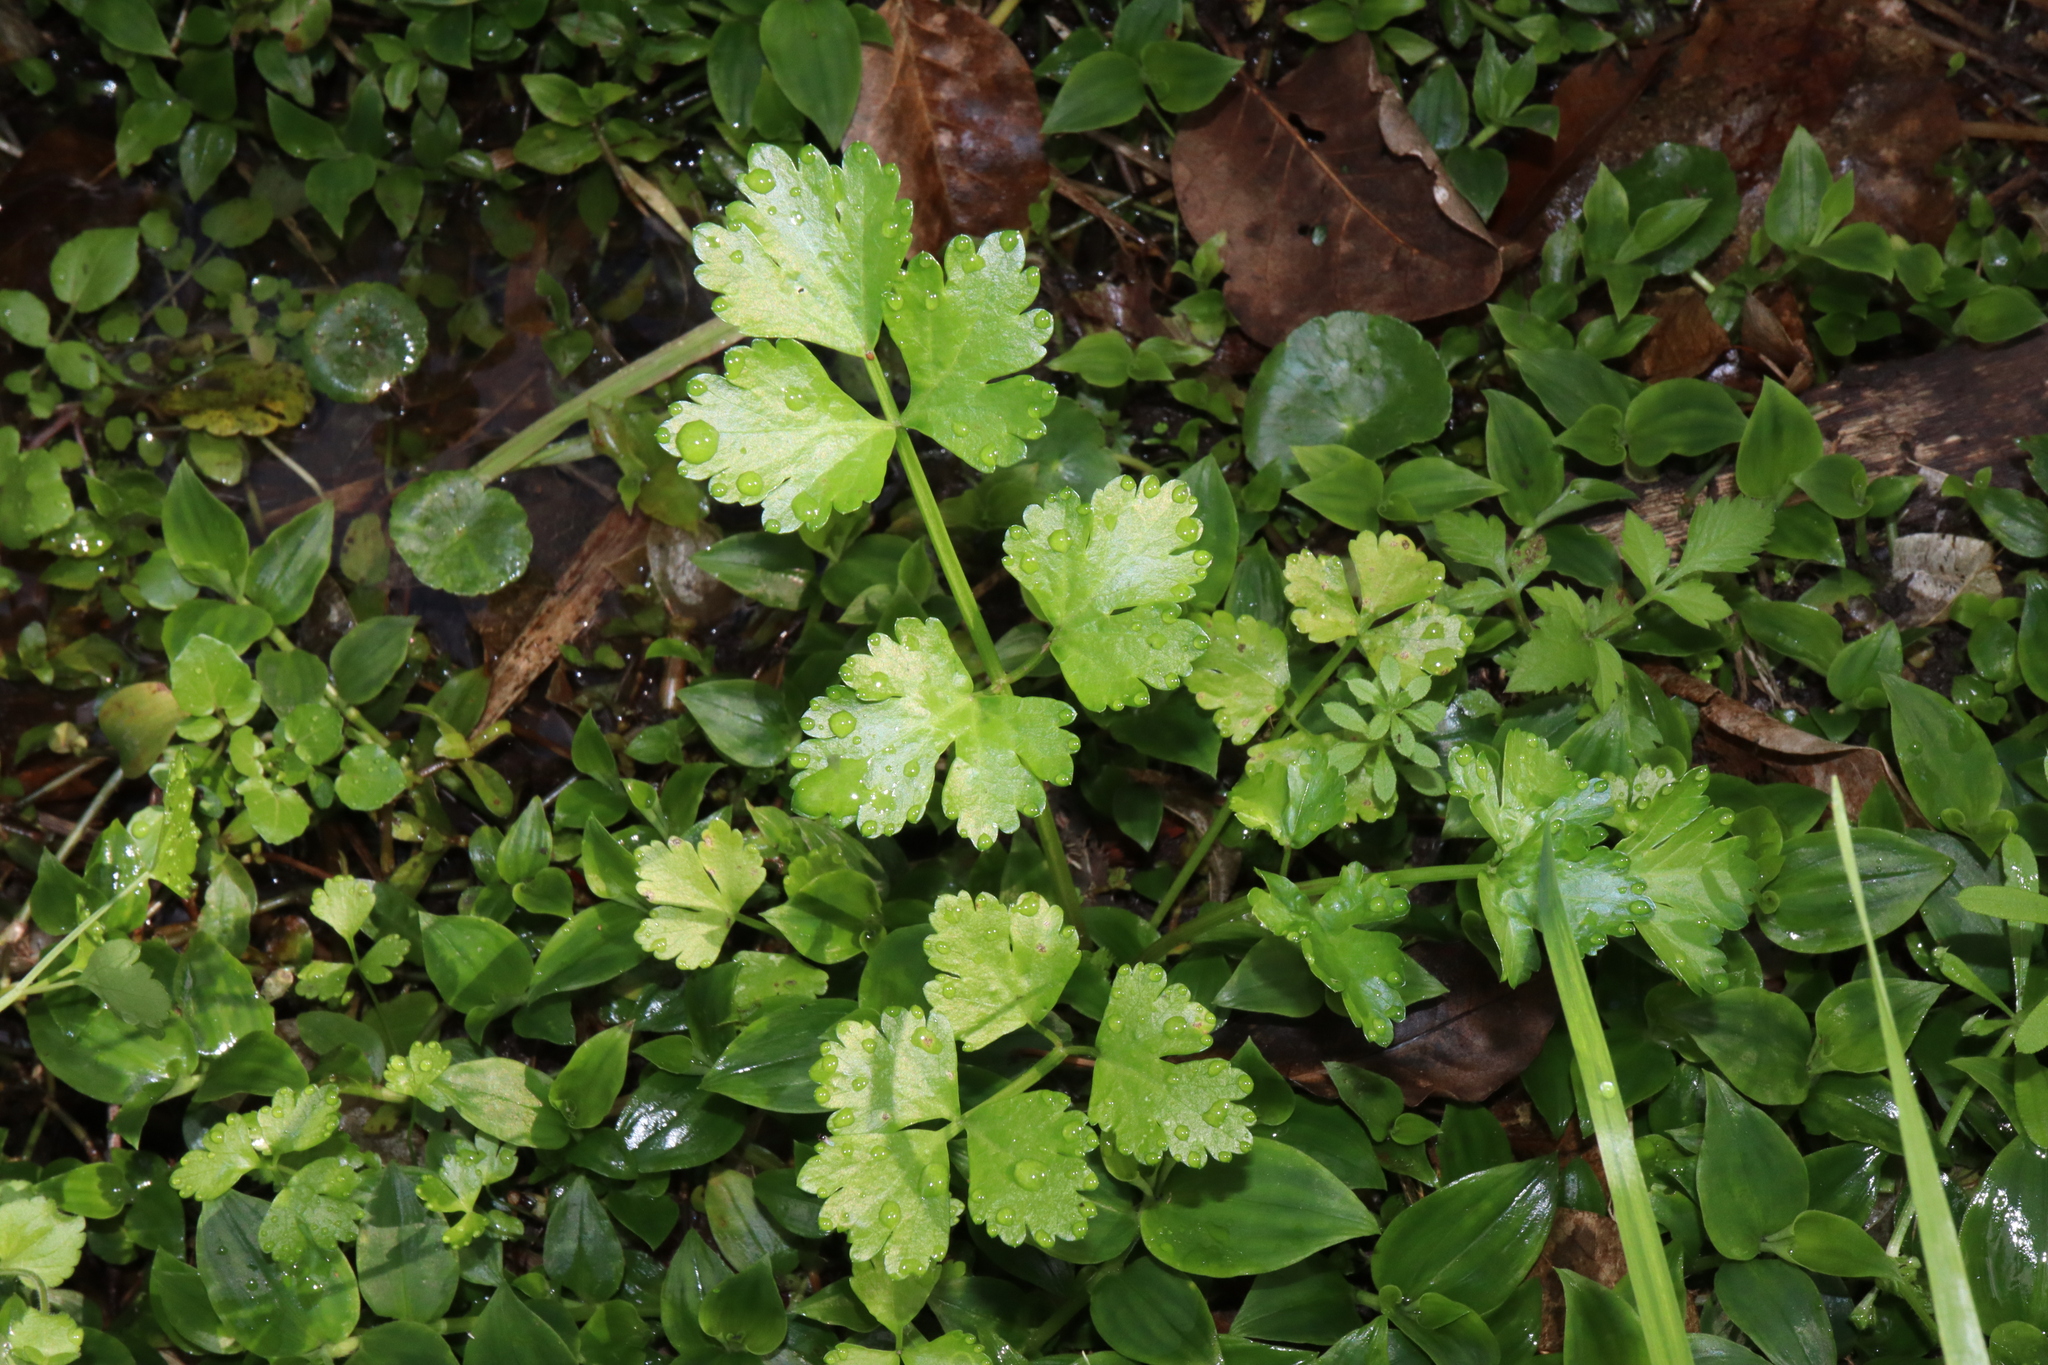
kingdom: Plantae
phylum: Tracheophyta
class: Magnoliopsida
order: Apiales
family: Apiaceae
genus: Apium
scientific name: Apium graveolens
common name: Wild celery
